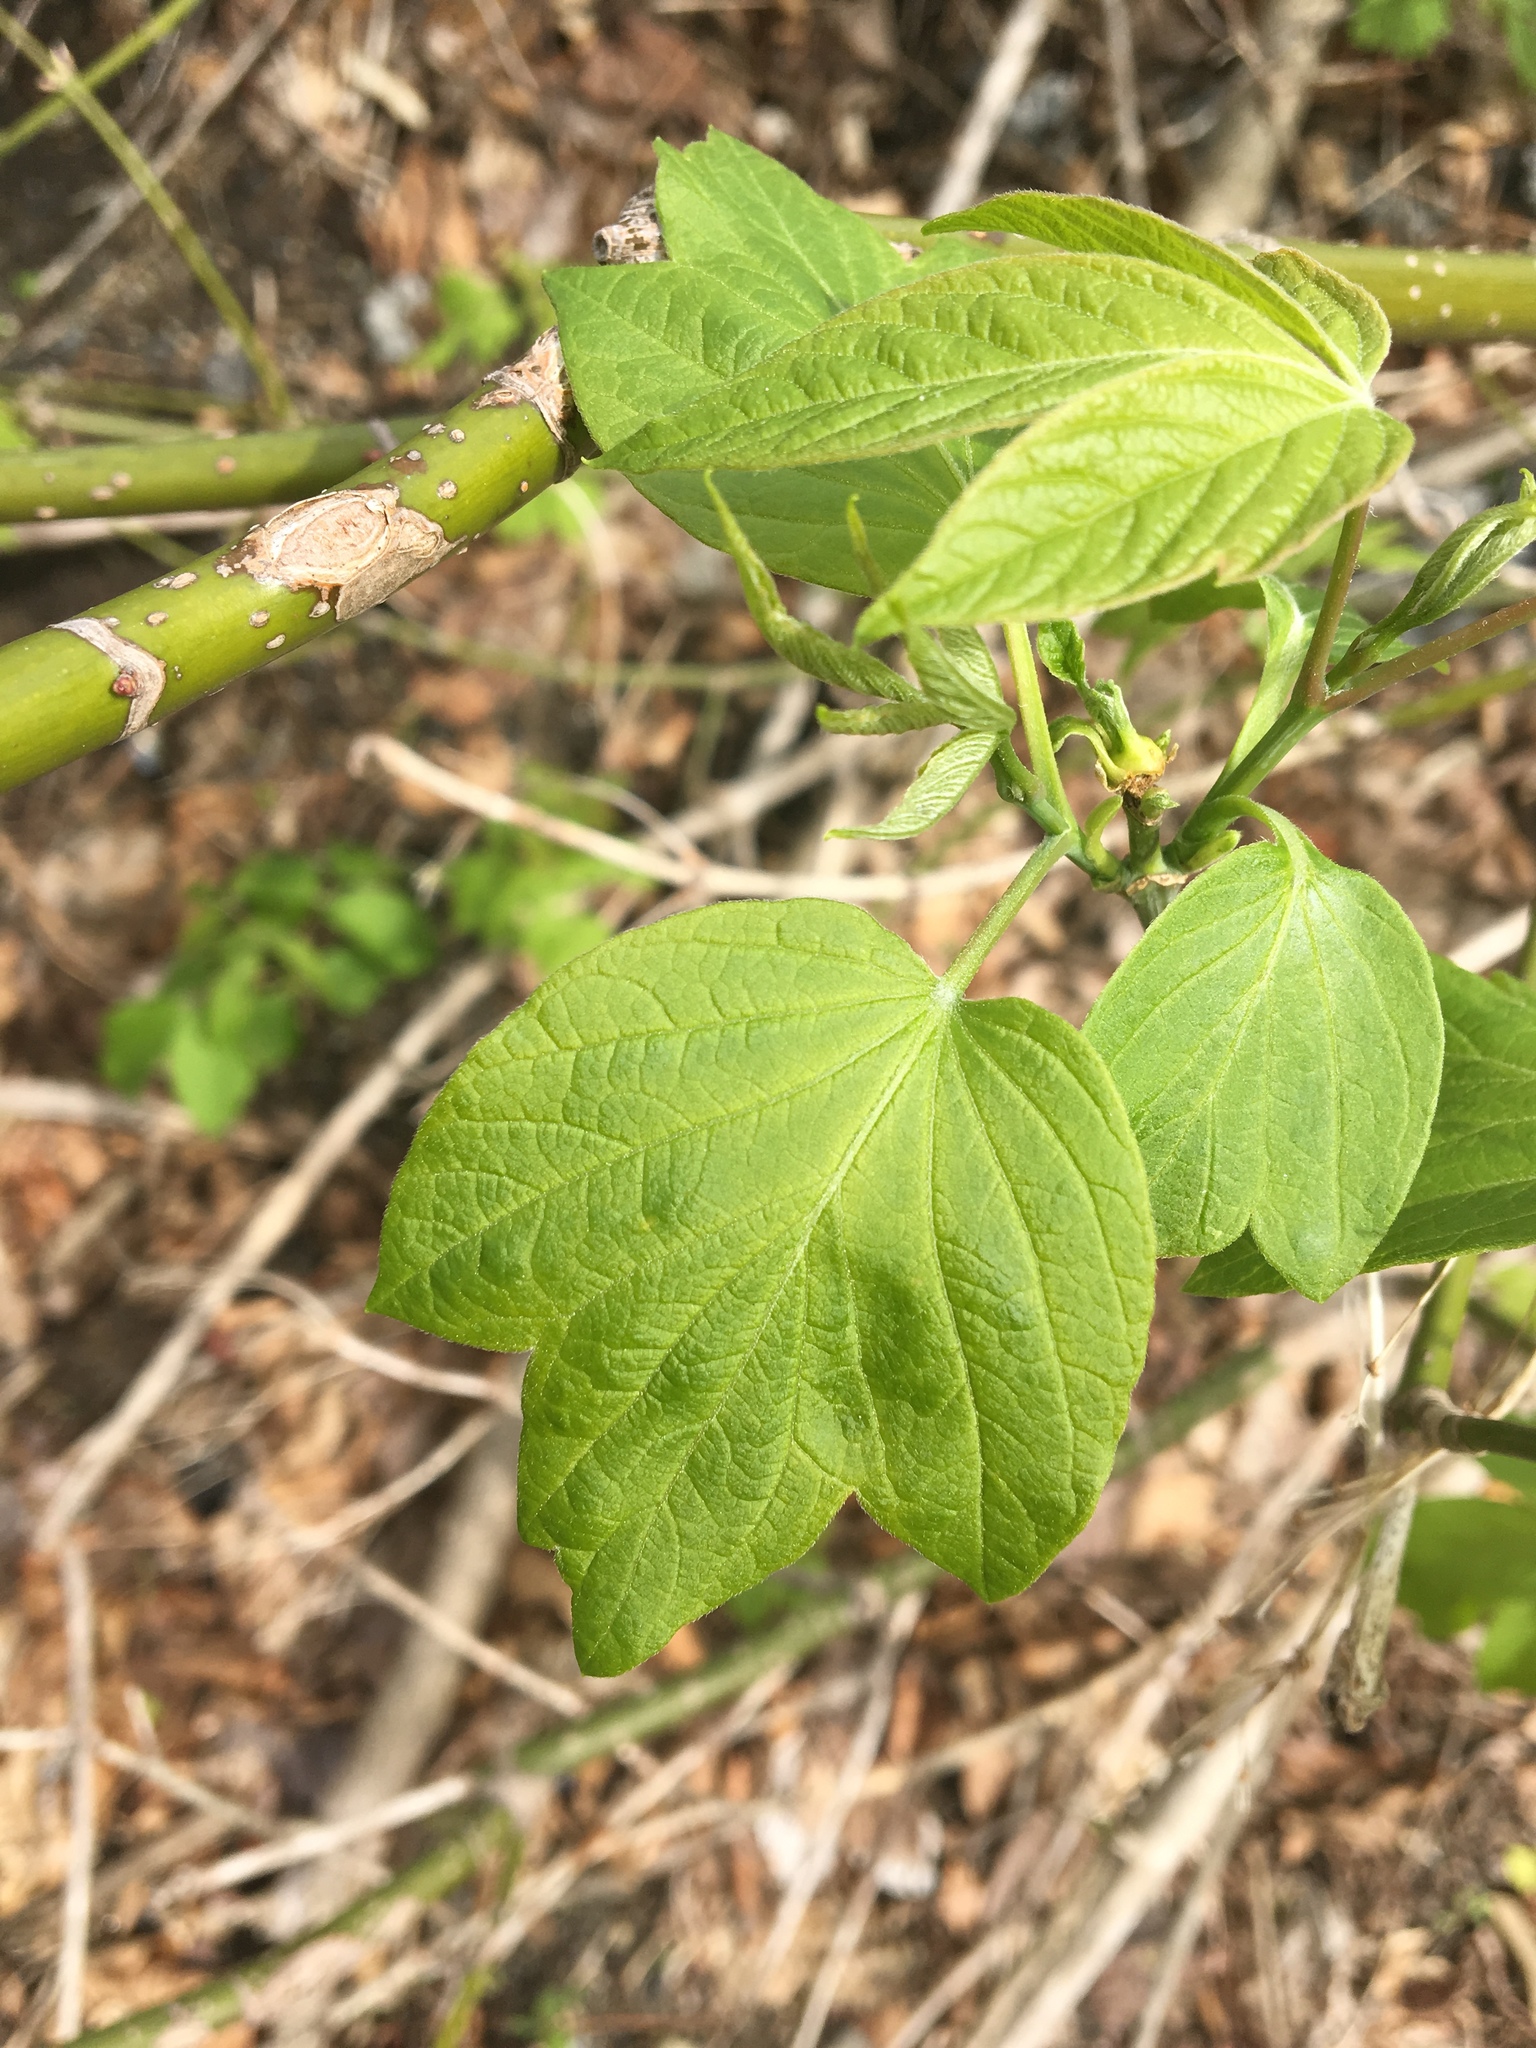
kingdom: Plantae
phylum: Tracheophyta
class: Magnoliopsida
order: Sapindales
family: Sapindaceae
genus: Acer
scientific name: Acer negundo
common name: Ashleaf maple
